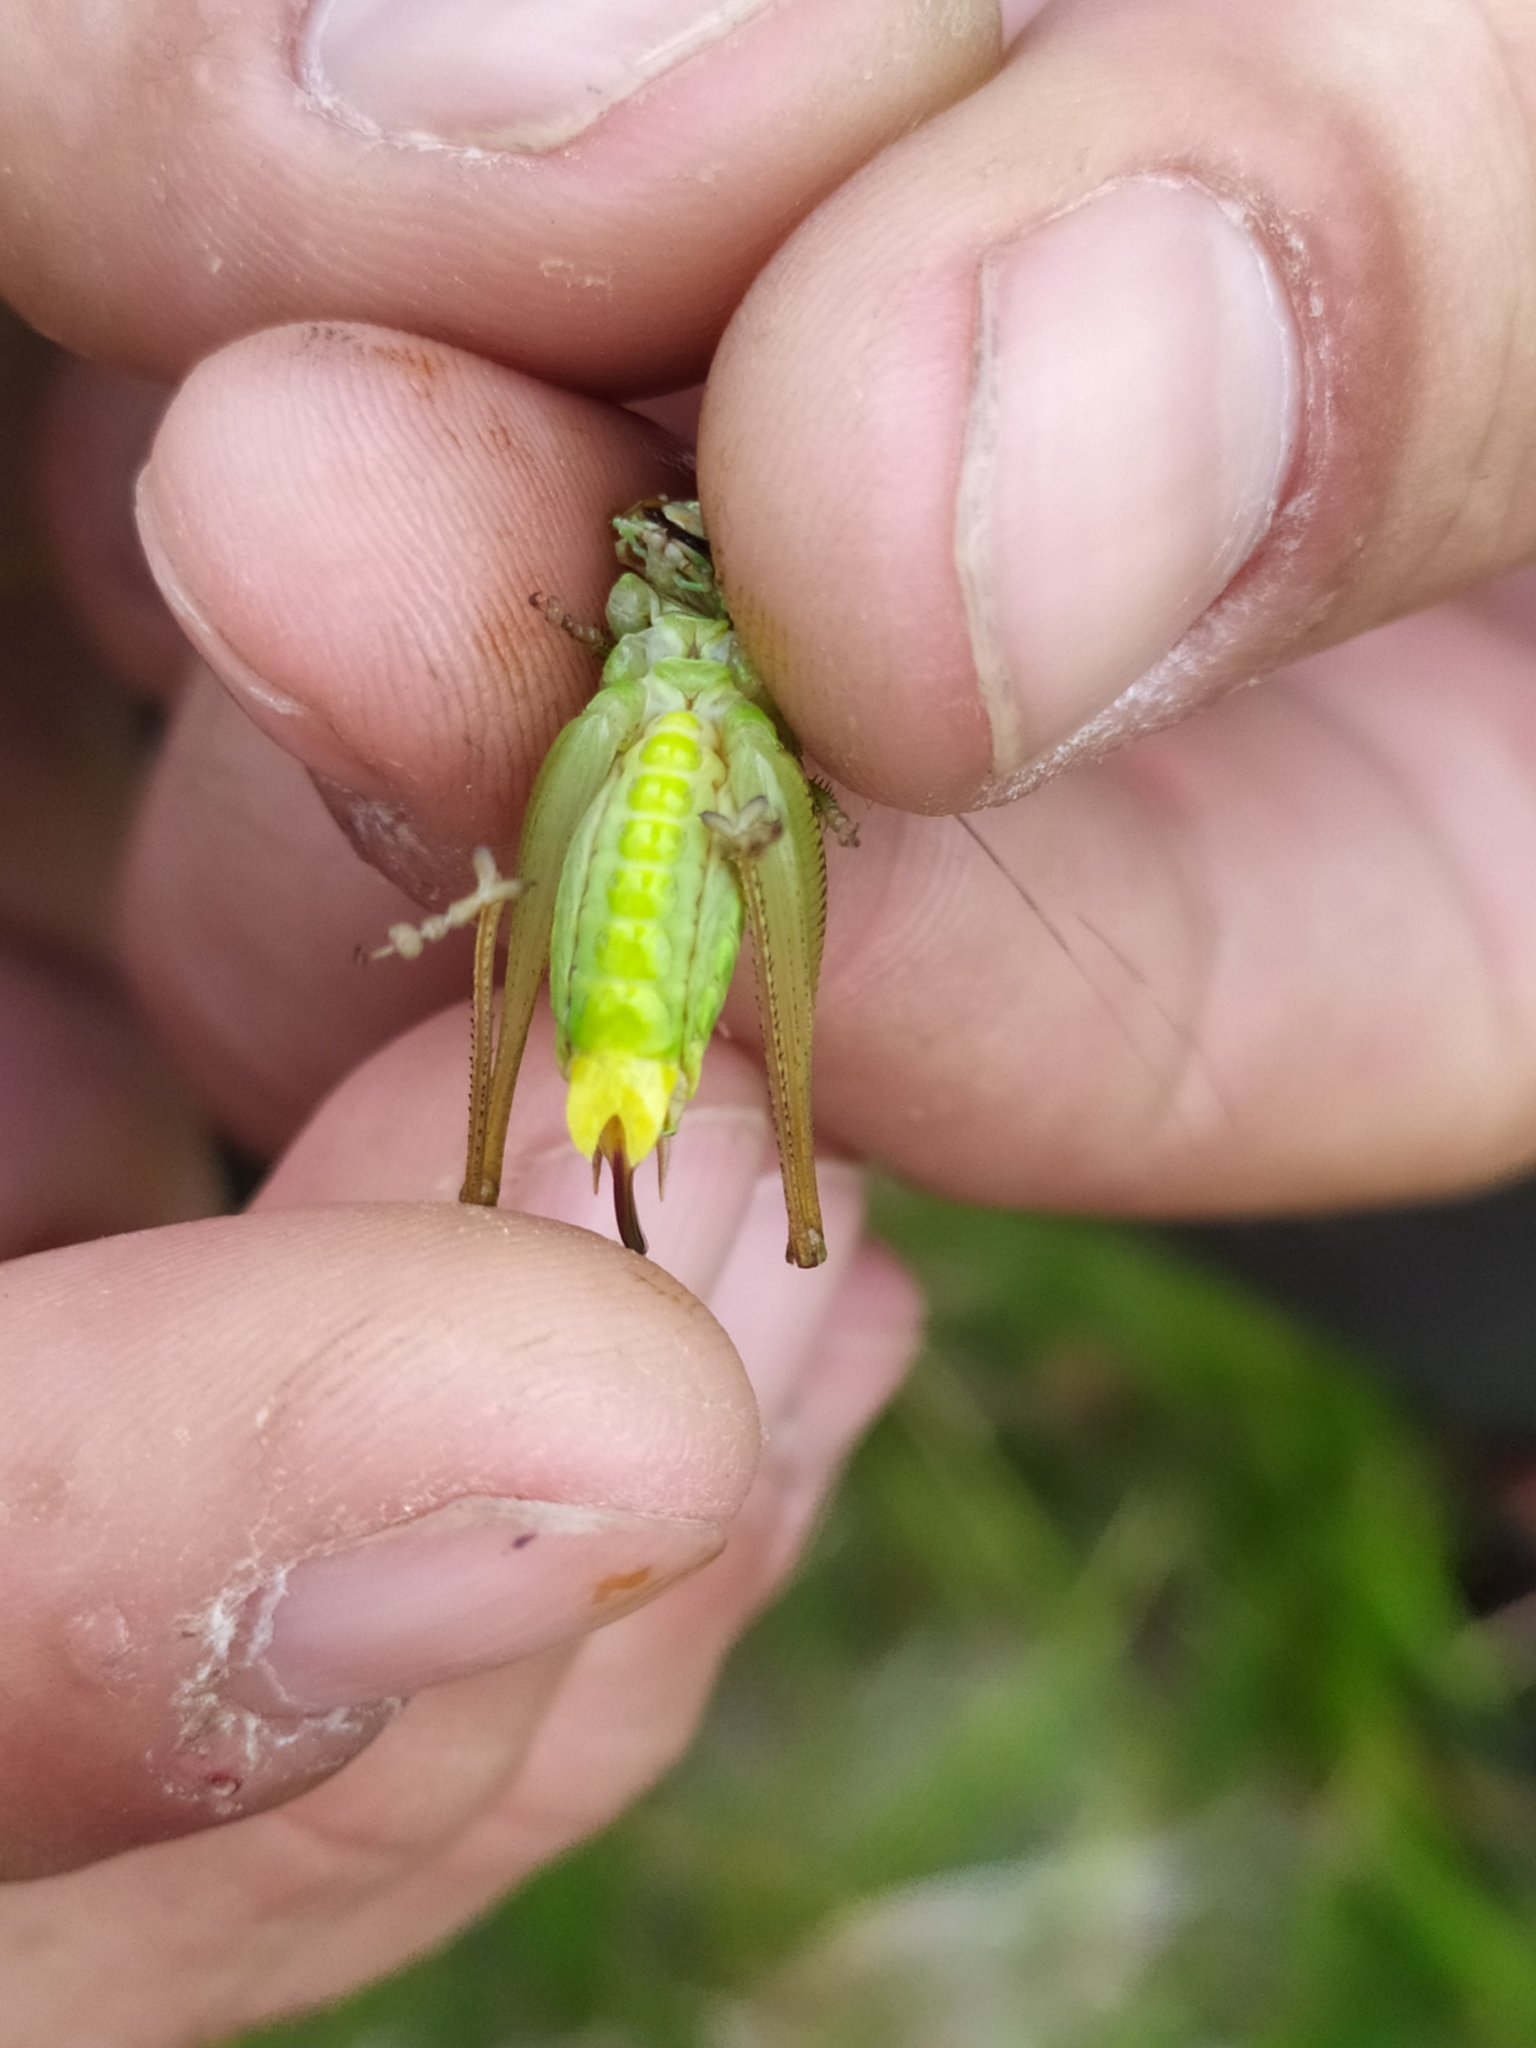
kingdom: Animalia
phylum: Arthropoda
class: Insecta
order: Orthoptera
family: Tettigoniidae
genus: Roeseliana
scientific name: Roeseliana roeselii
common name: Roesel's bush cricket
